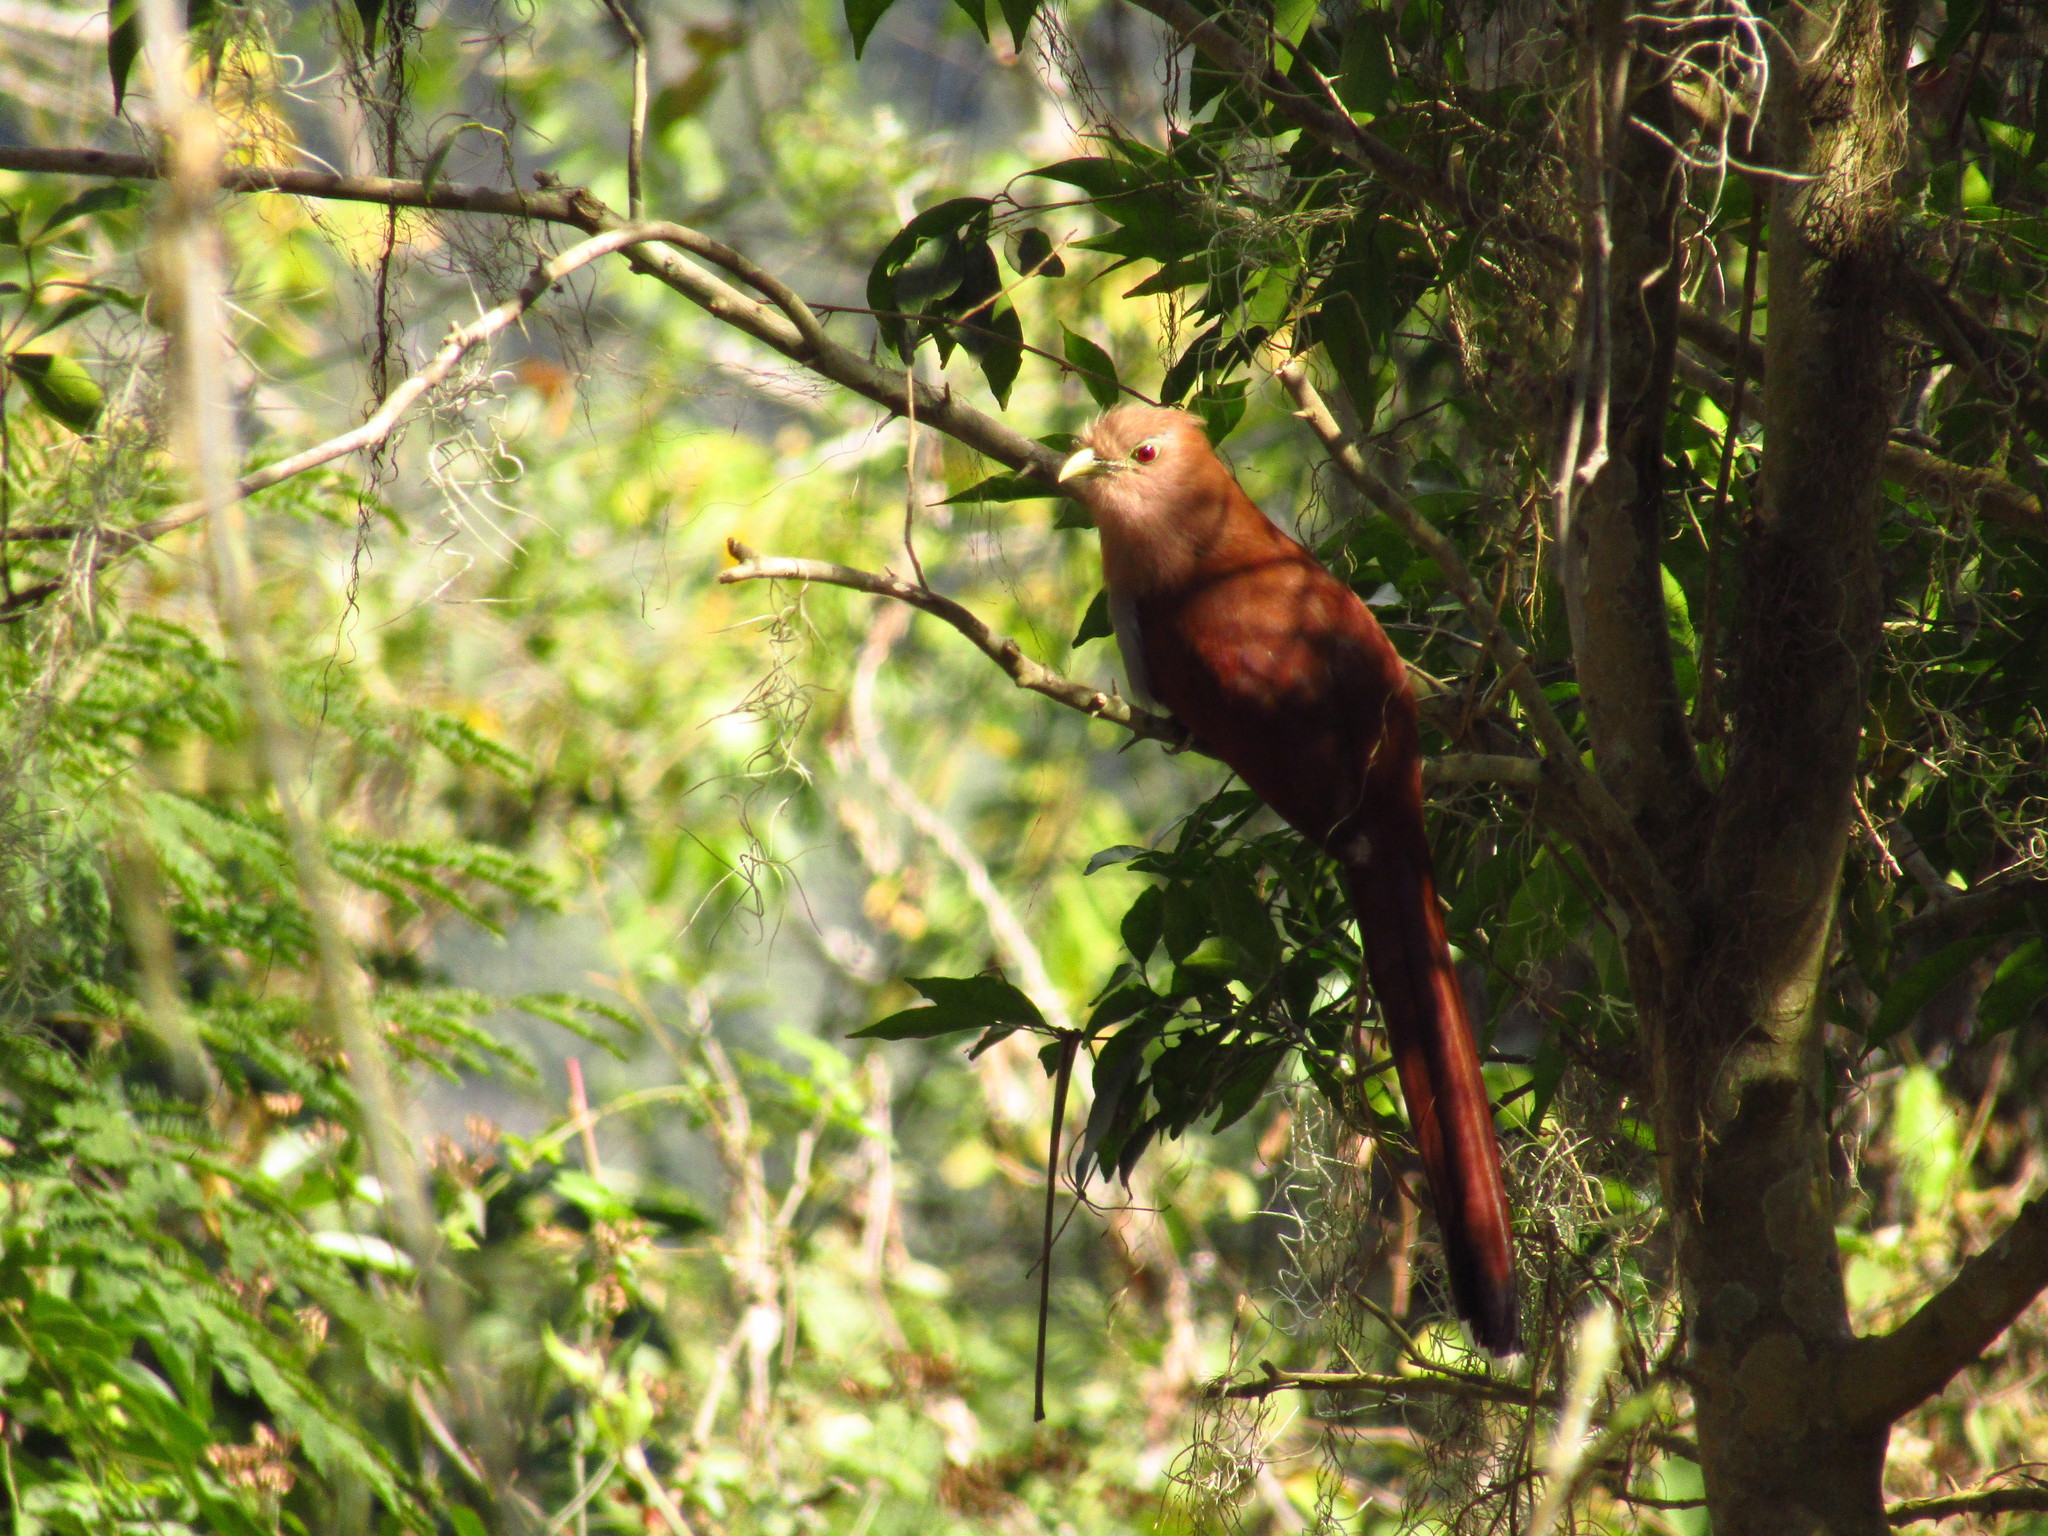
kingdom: Animalia
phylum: Chordata
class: Aves
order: Cuculiformes
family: Cuculidae
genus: Piaya
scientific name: Piaya cayana
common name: Squirrel cuckoo
